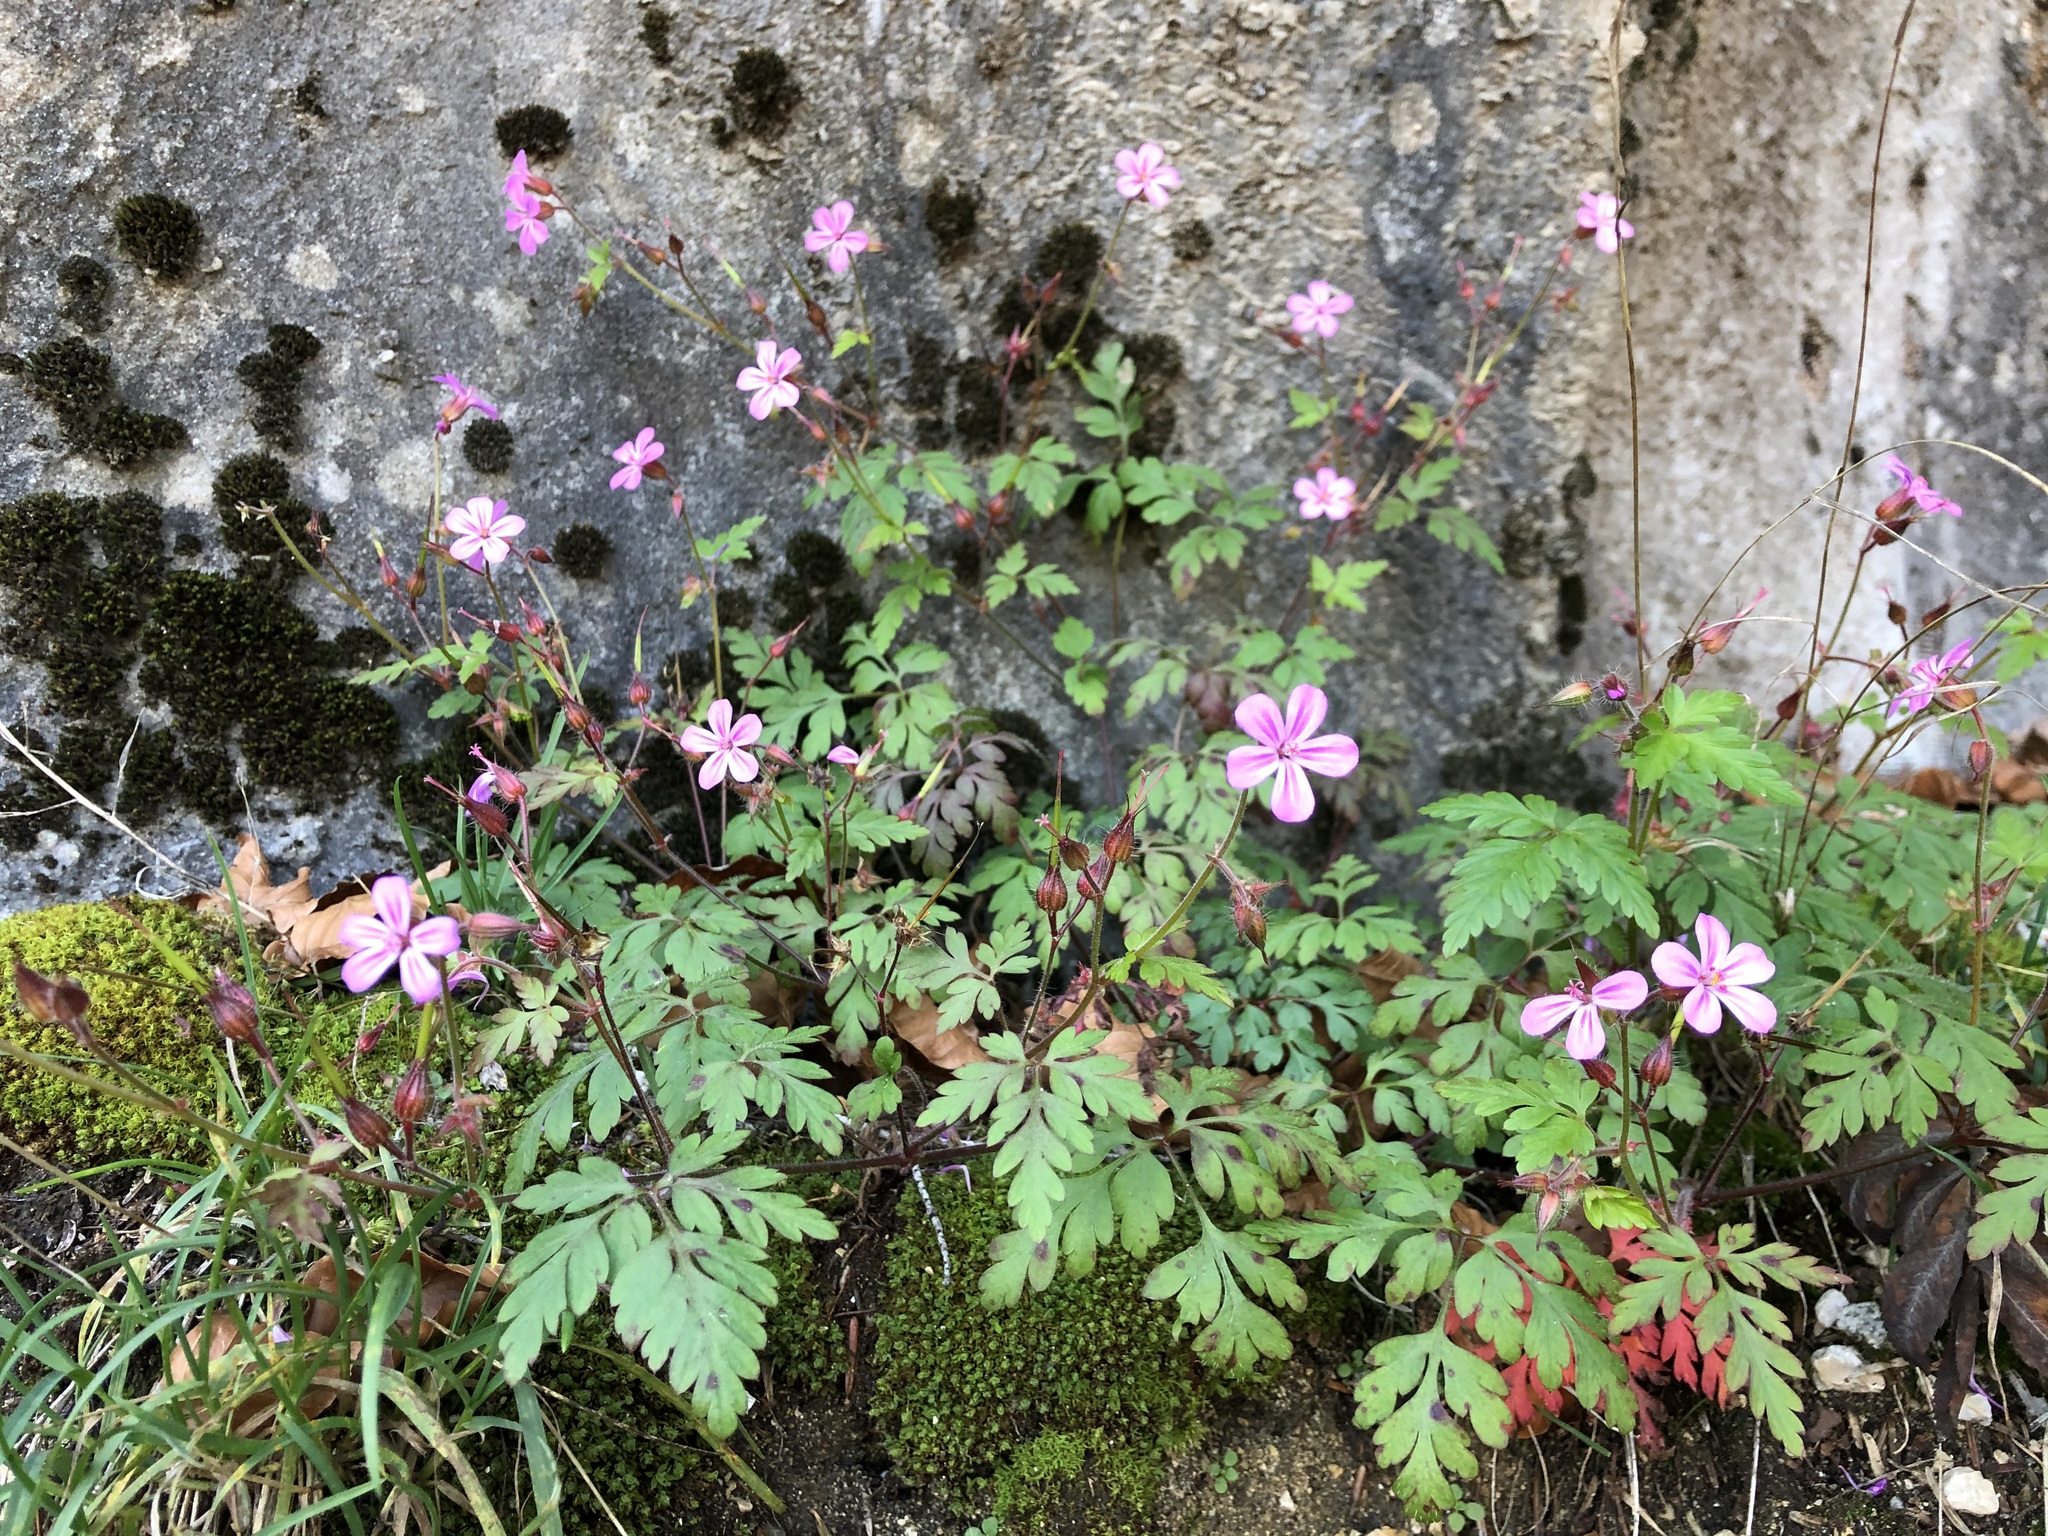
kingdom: Plantae
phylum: Tracheophyta
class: Magnoliopsida
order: Geraniales
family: Geraniaceae
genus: Geranium
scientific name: Geranium robertianum
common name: Herb-robert
